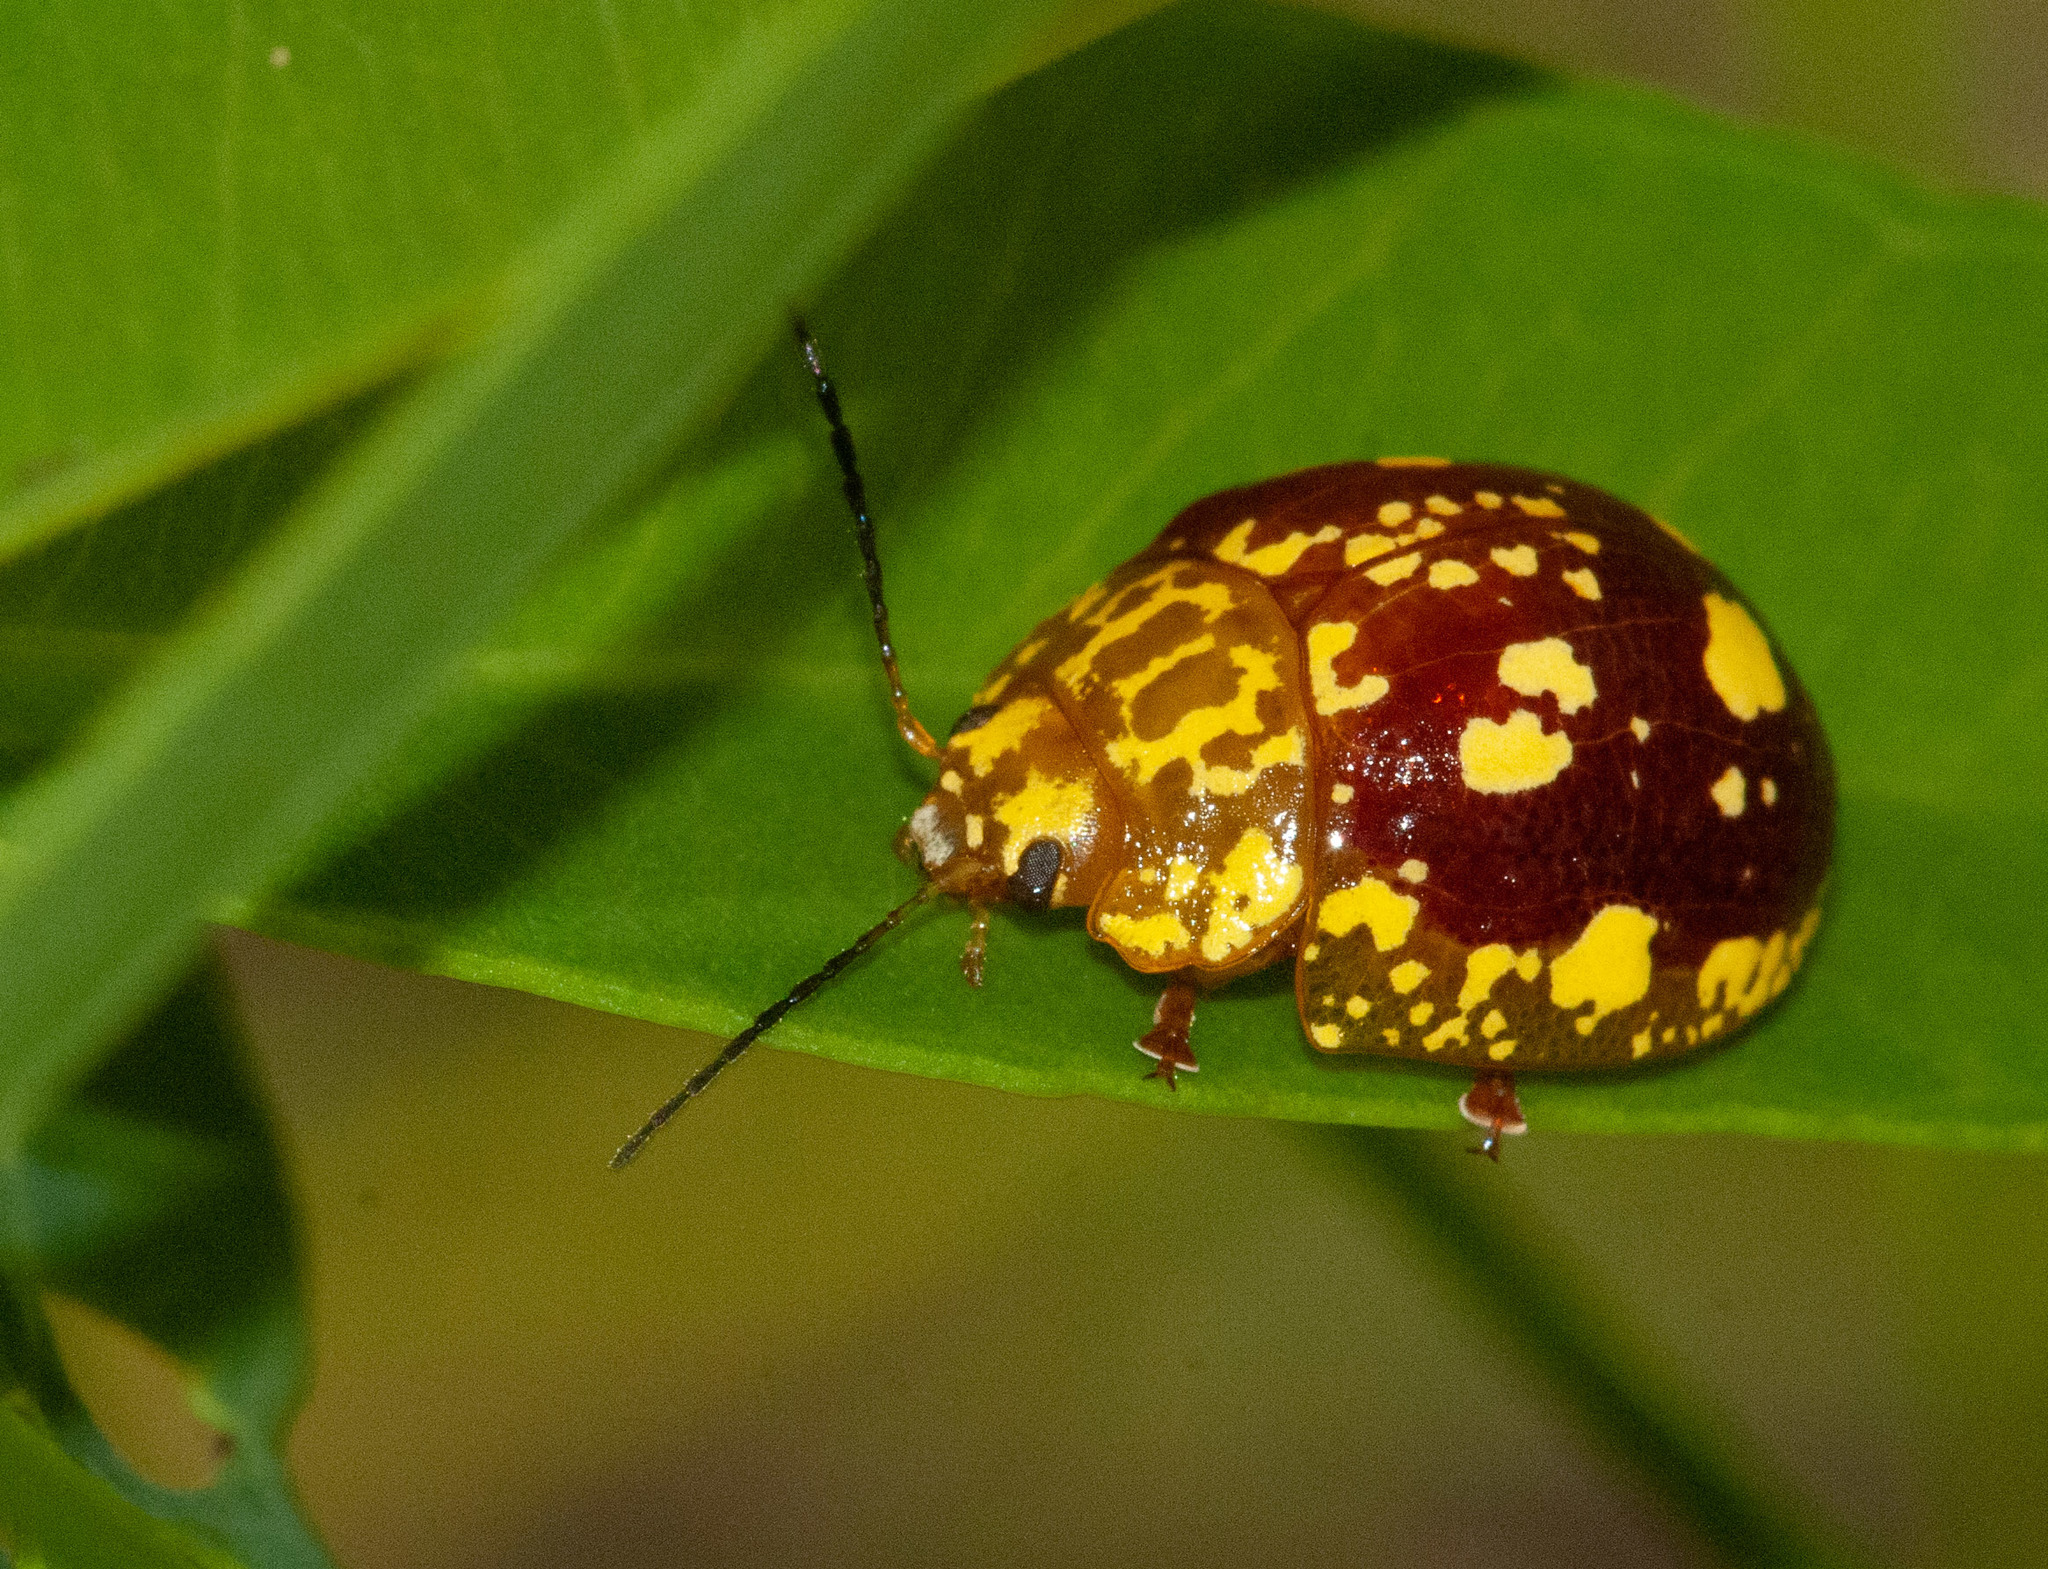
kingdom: Animalia
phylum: Arthropoda
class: Insecta
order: Coleoptera
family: Chrysomelidae
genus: Paropsis
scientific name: Paropsis maculata
